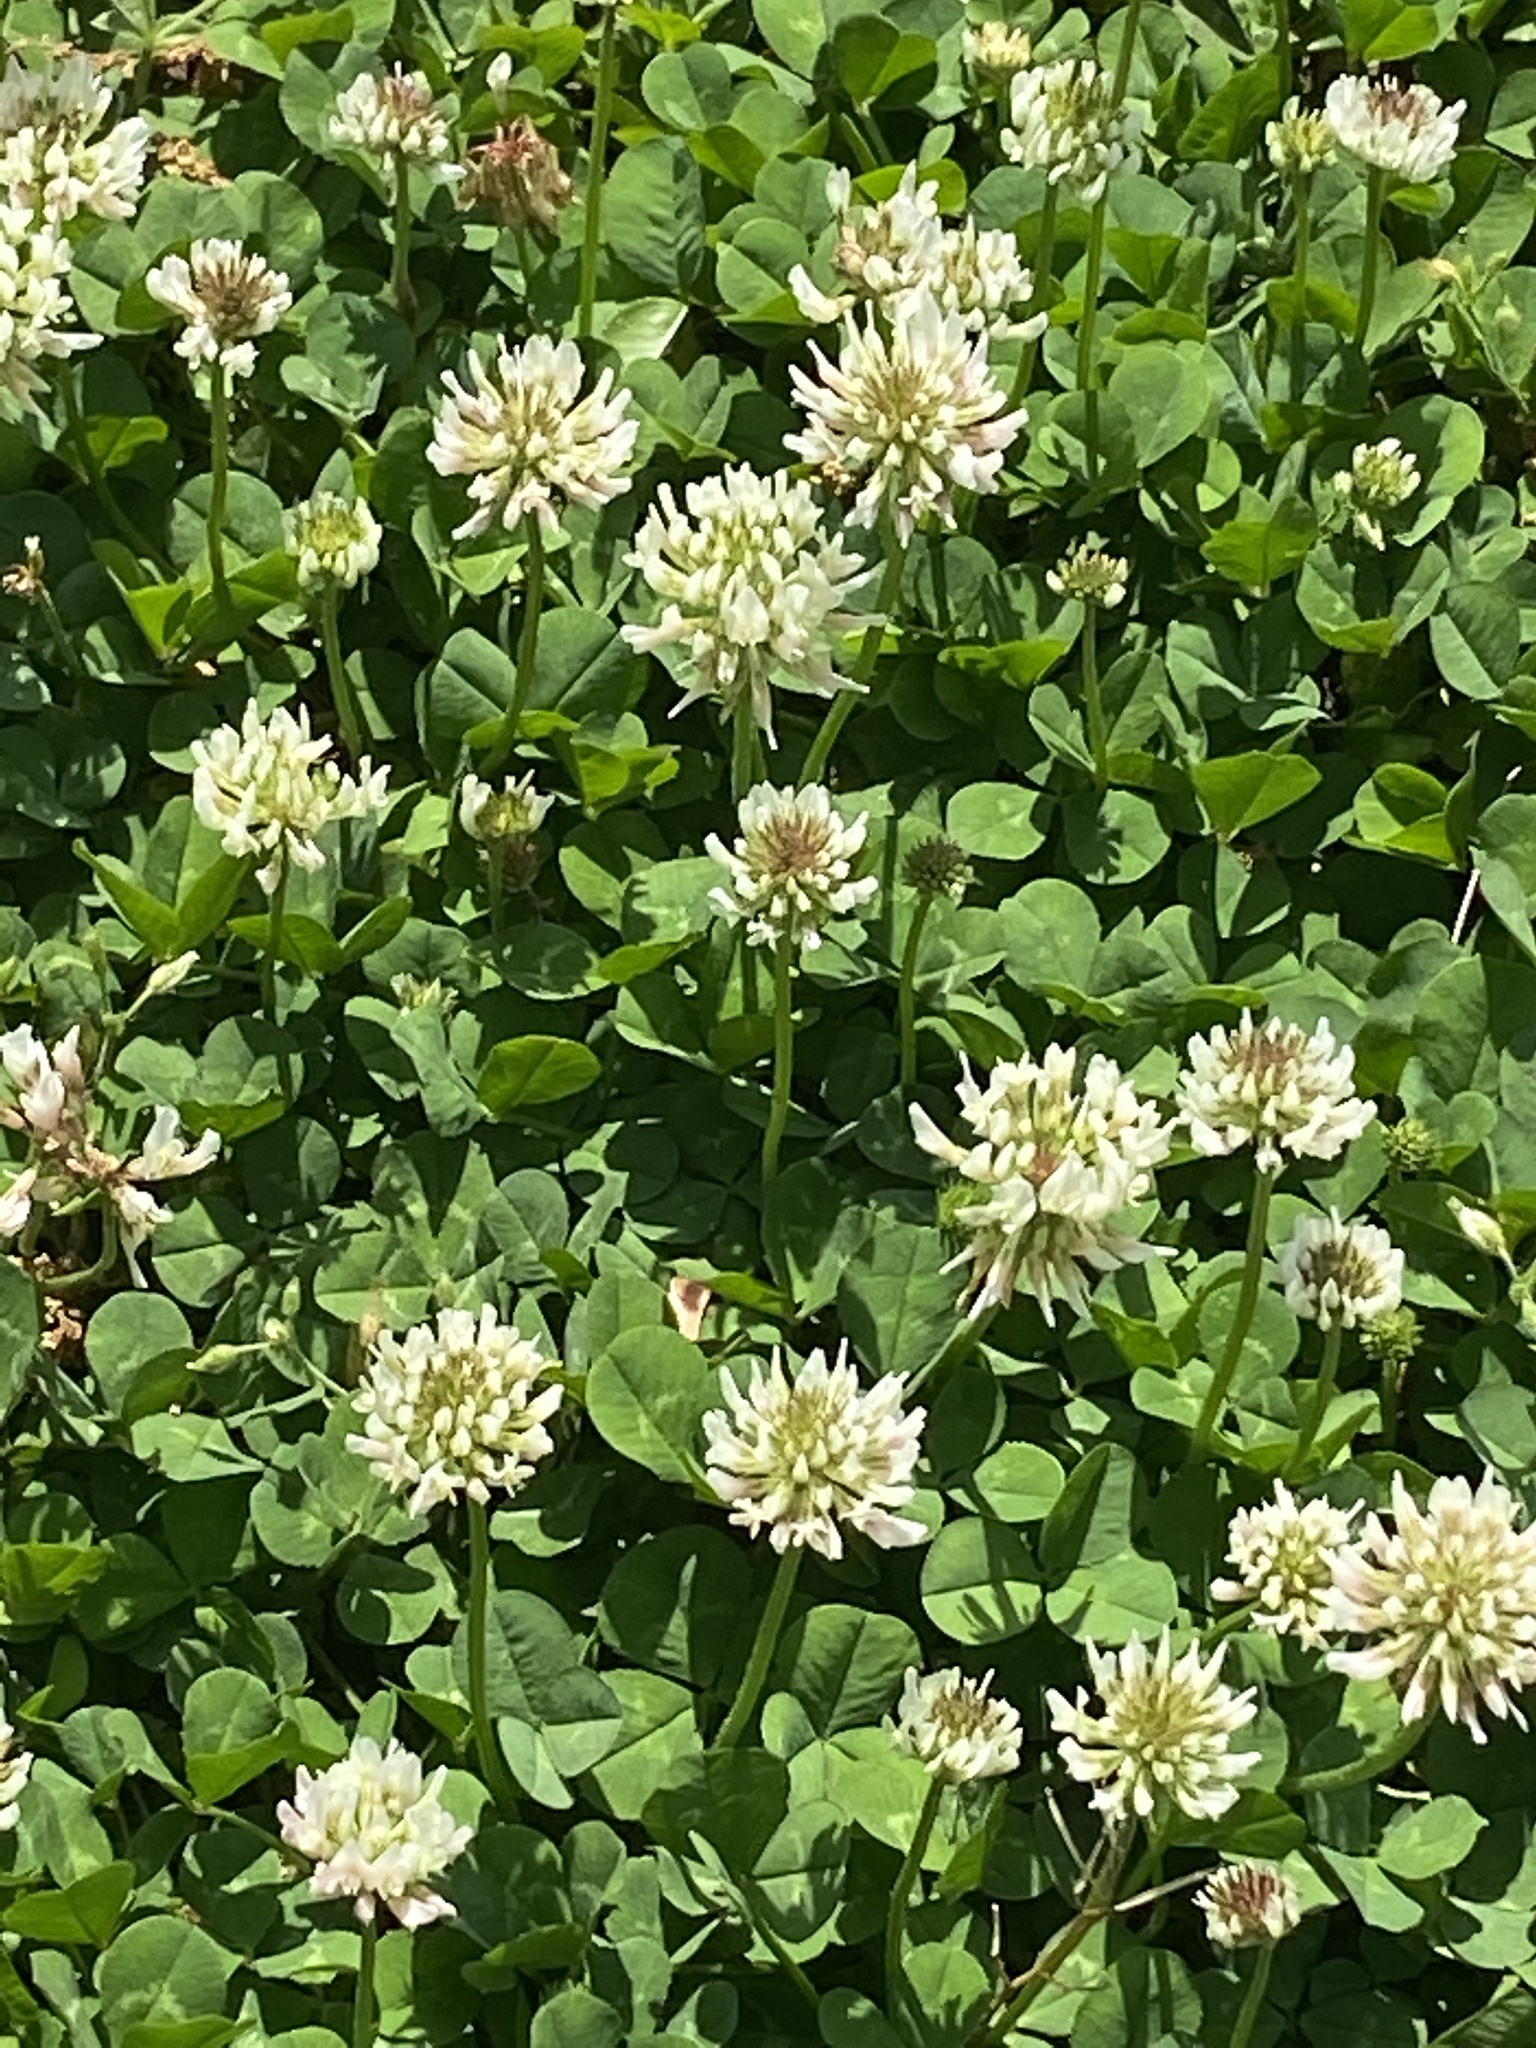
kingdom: Plantae
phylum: Tracheophyta
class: Magnoliopsida
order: Fabales
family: Fabaceae
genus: Trifolium
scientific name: Trifolium repens
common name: White clover
